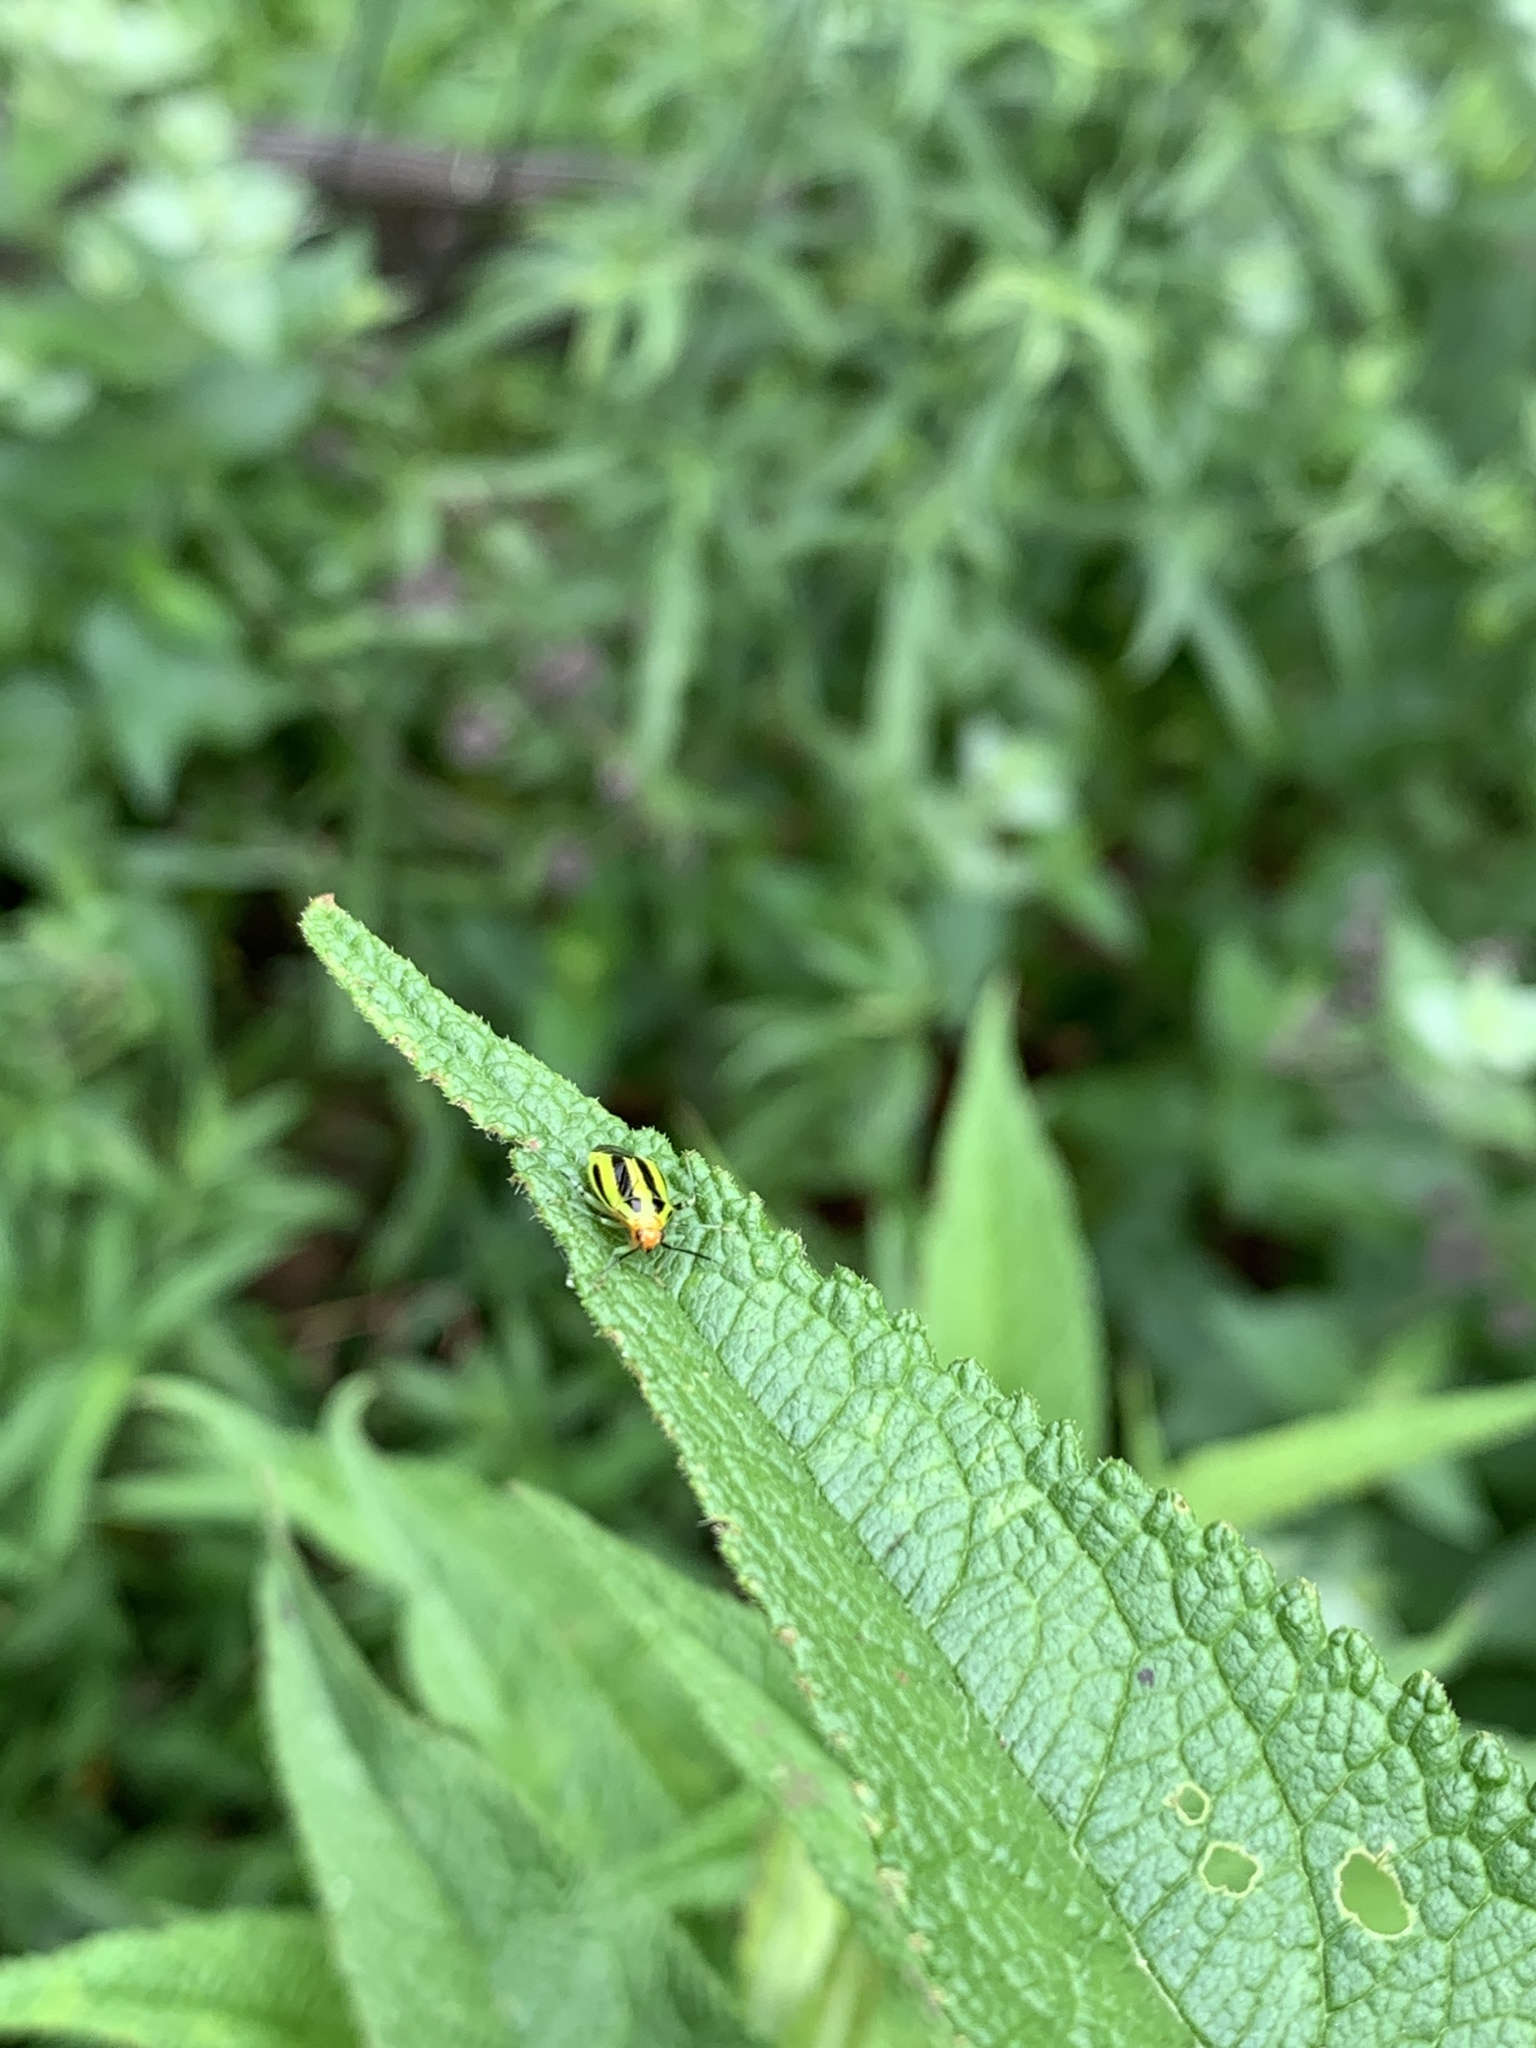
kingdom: Animalia
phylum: Arthropoda
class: Insecta
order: Hemiptera
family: Miridae
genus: Poecilocapsus
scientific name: Poecilocapsus lineatus
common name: Four-lined plant bug
